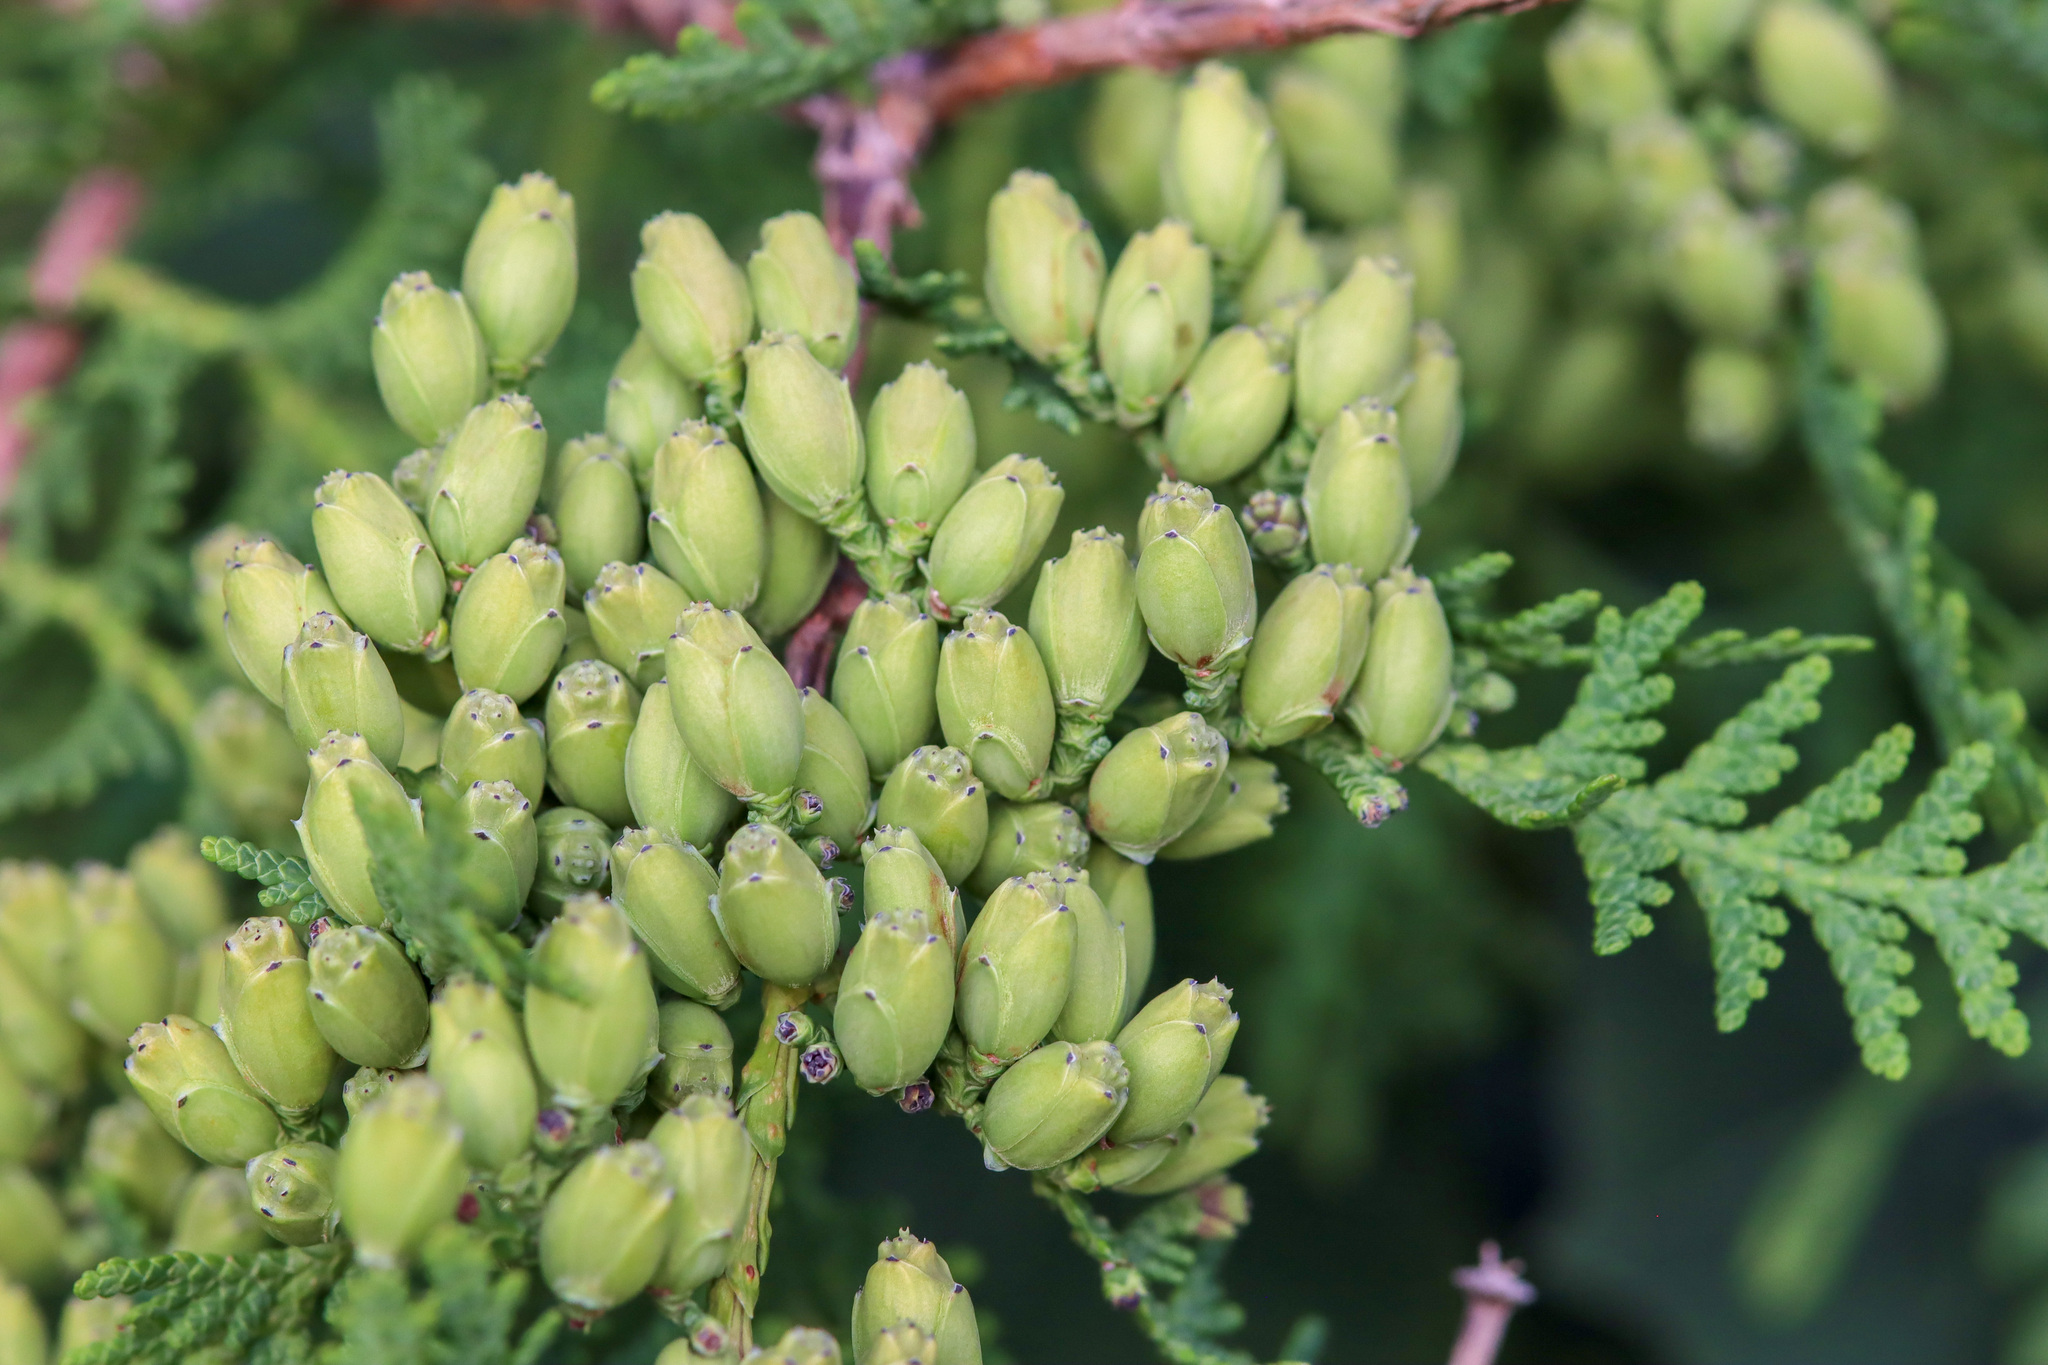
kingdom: Plantae
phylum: Tracheophyta
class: Pinopsida
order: Pinales
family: Cupressaceae
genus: Thuja
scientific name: Thuja occidentalis
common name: Northern white-cedar
